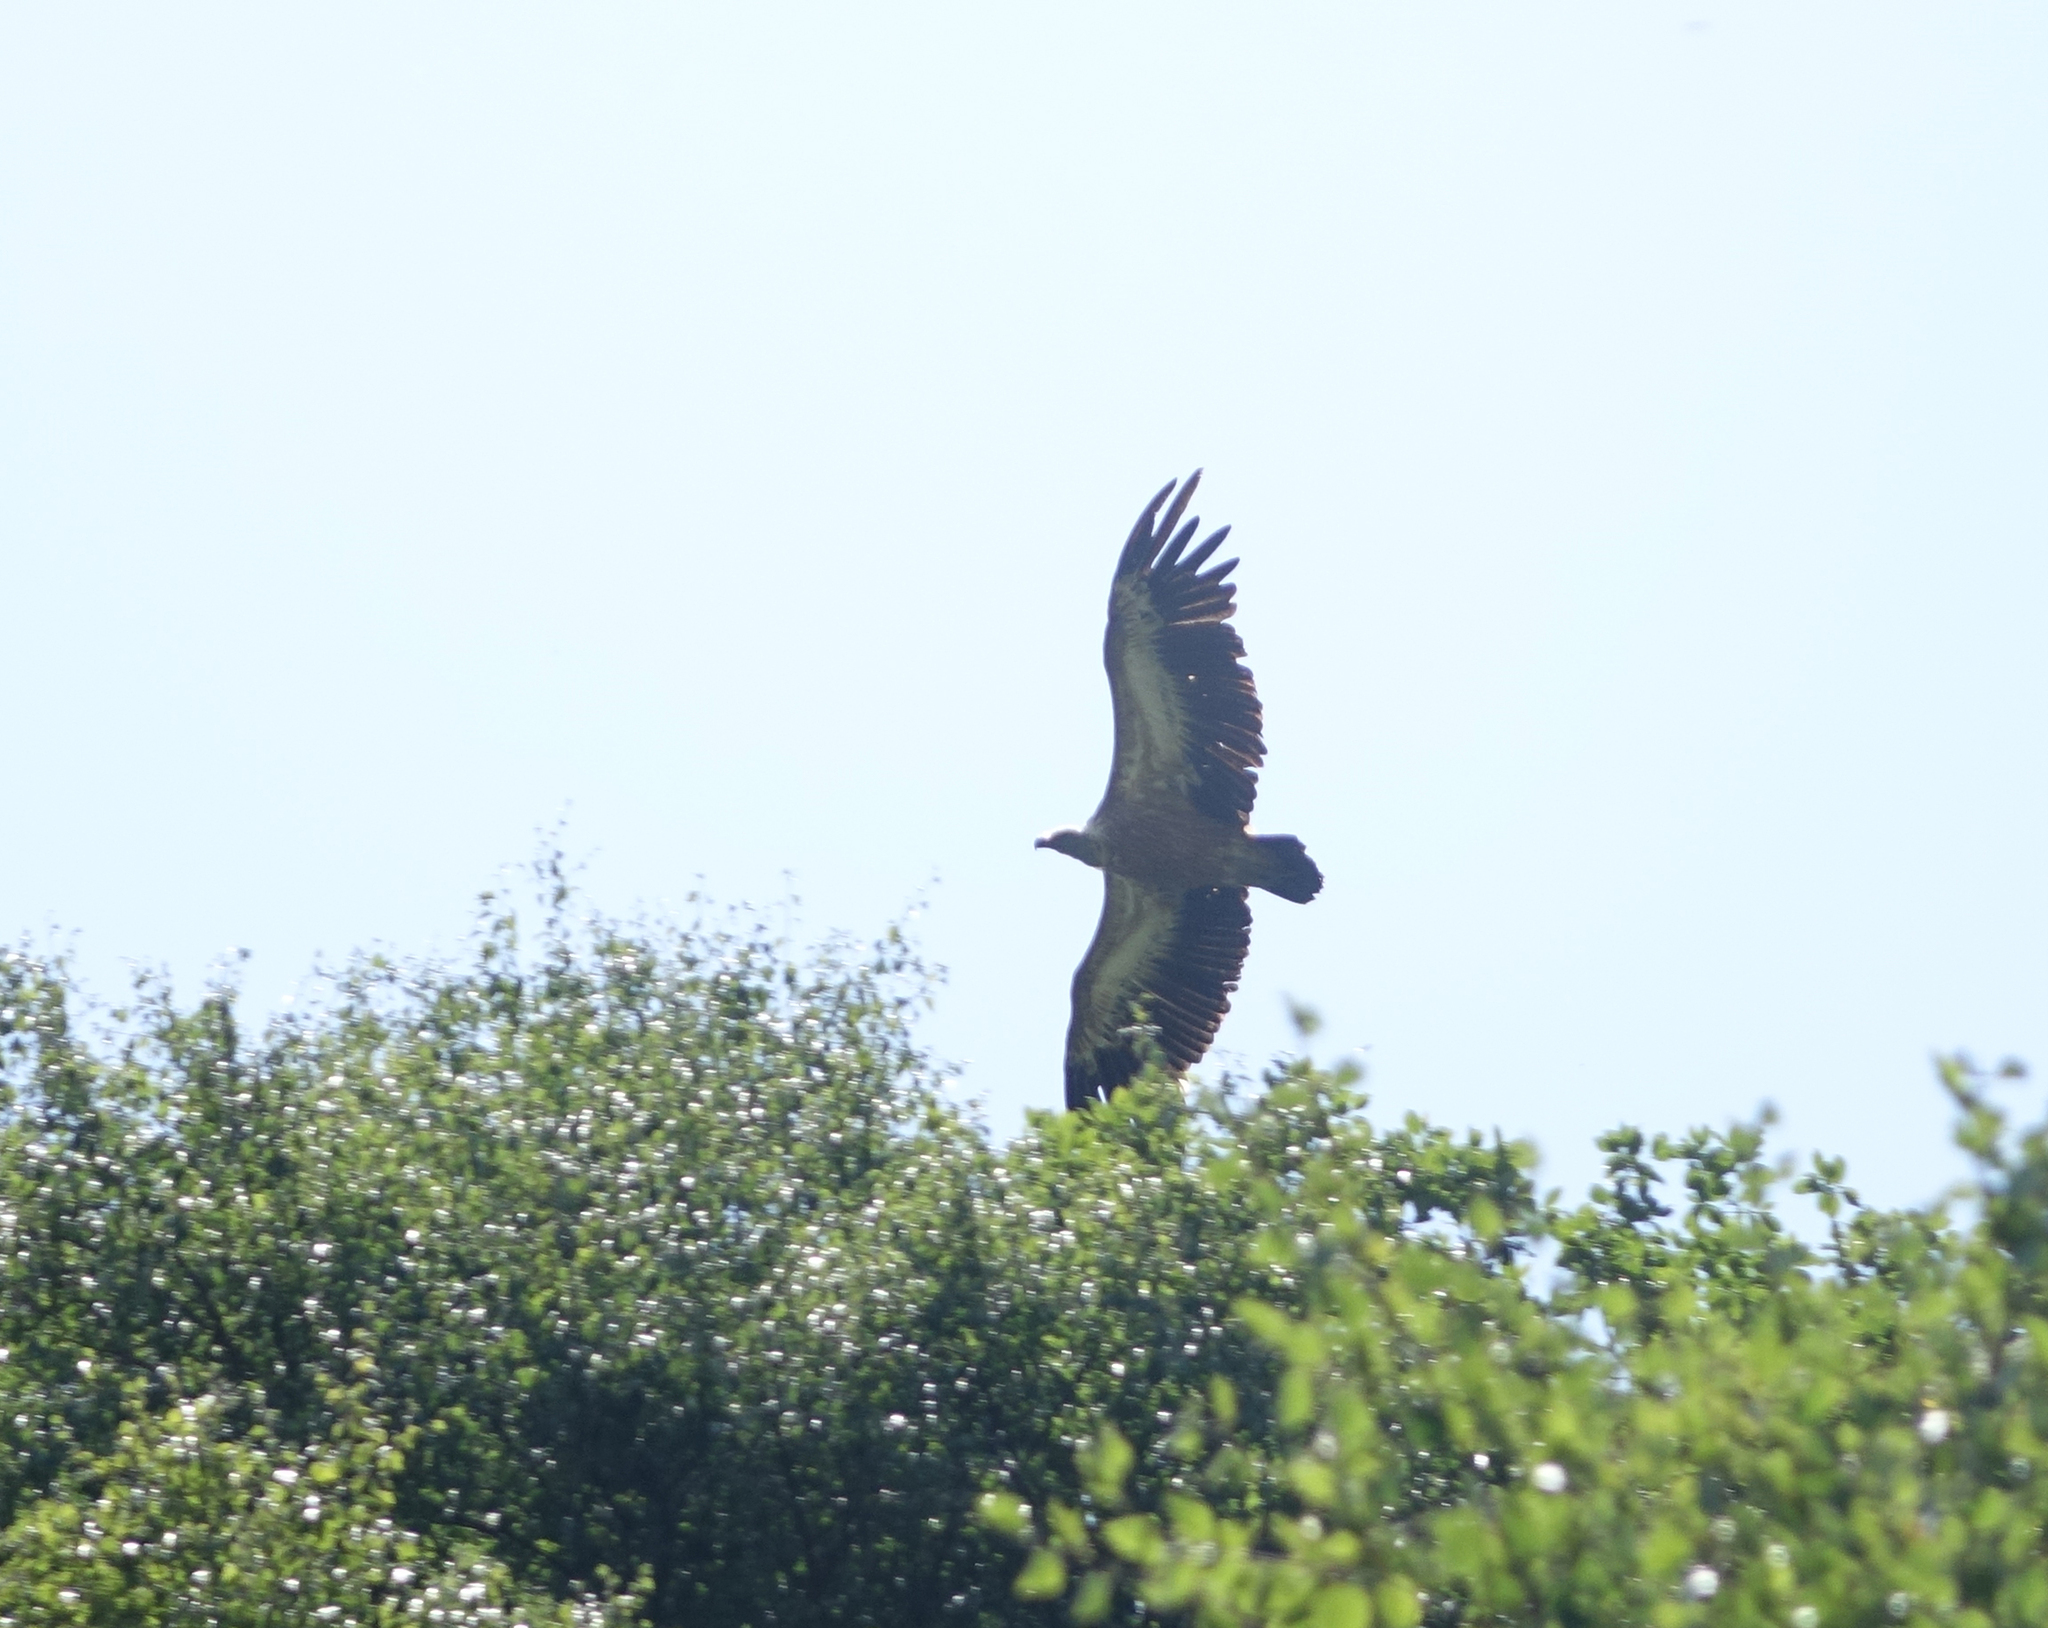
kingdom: Animalia
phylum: Chordata
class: Aves
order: Accipitriformes
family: Accipitridae
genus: Gyps
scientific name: Gyps fulvus
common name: Griffon vulture
